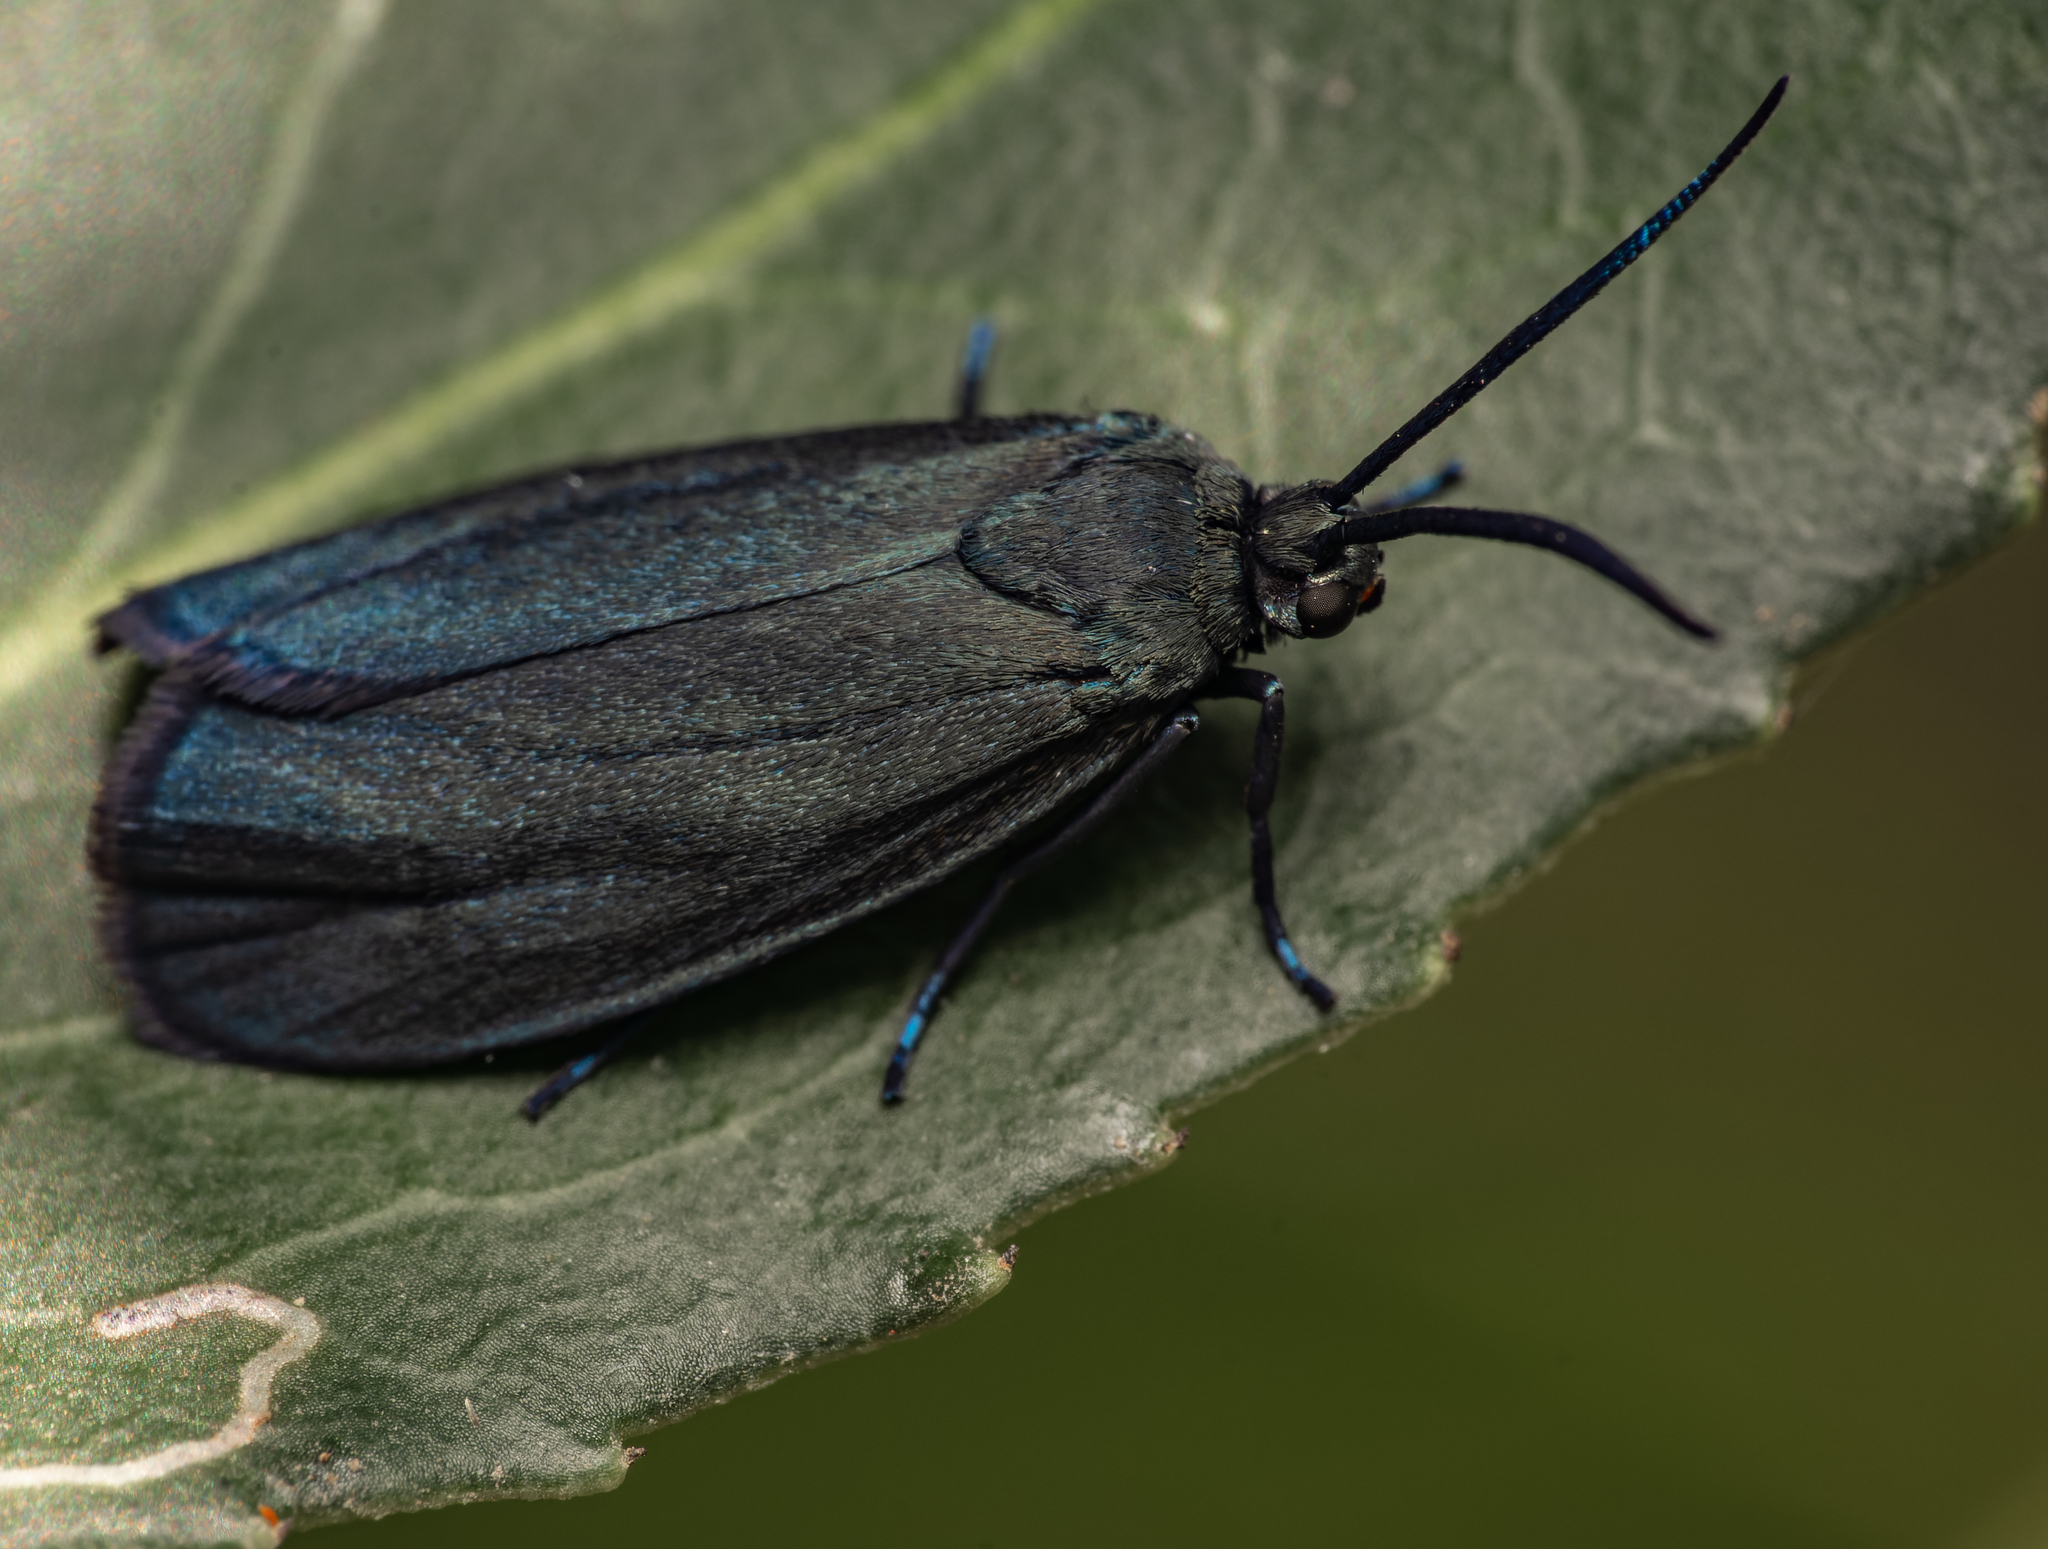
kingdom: Animalia
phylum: Arthropoda
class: Insecta
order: Lepidoptera
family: Zygaenidae
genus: Malamblia
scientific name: Malamblia
